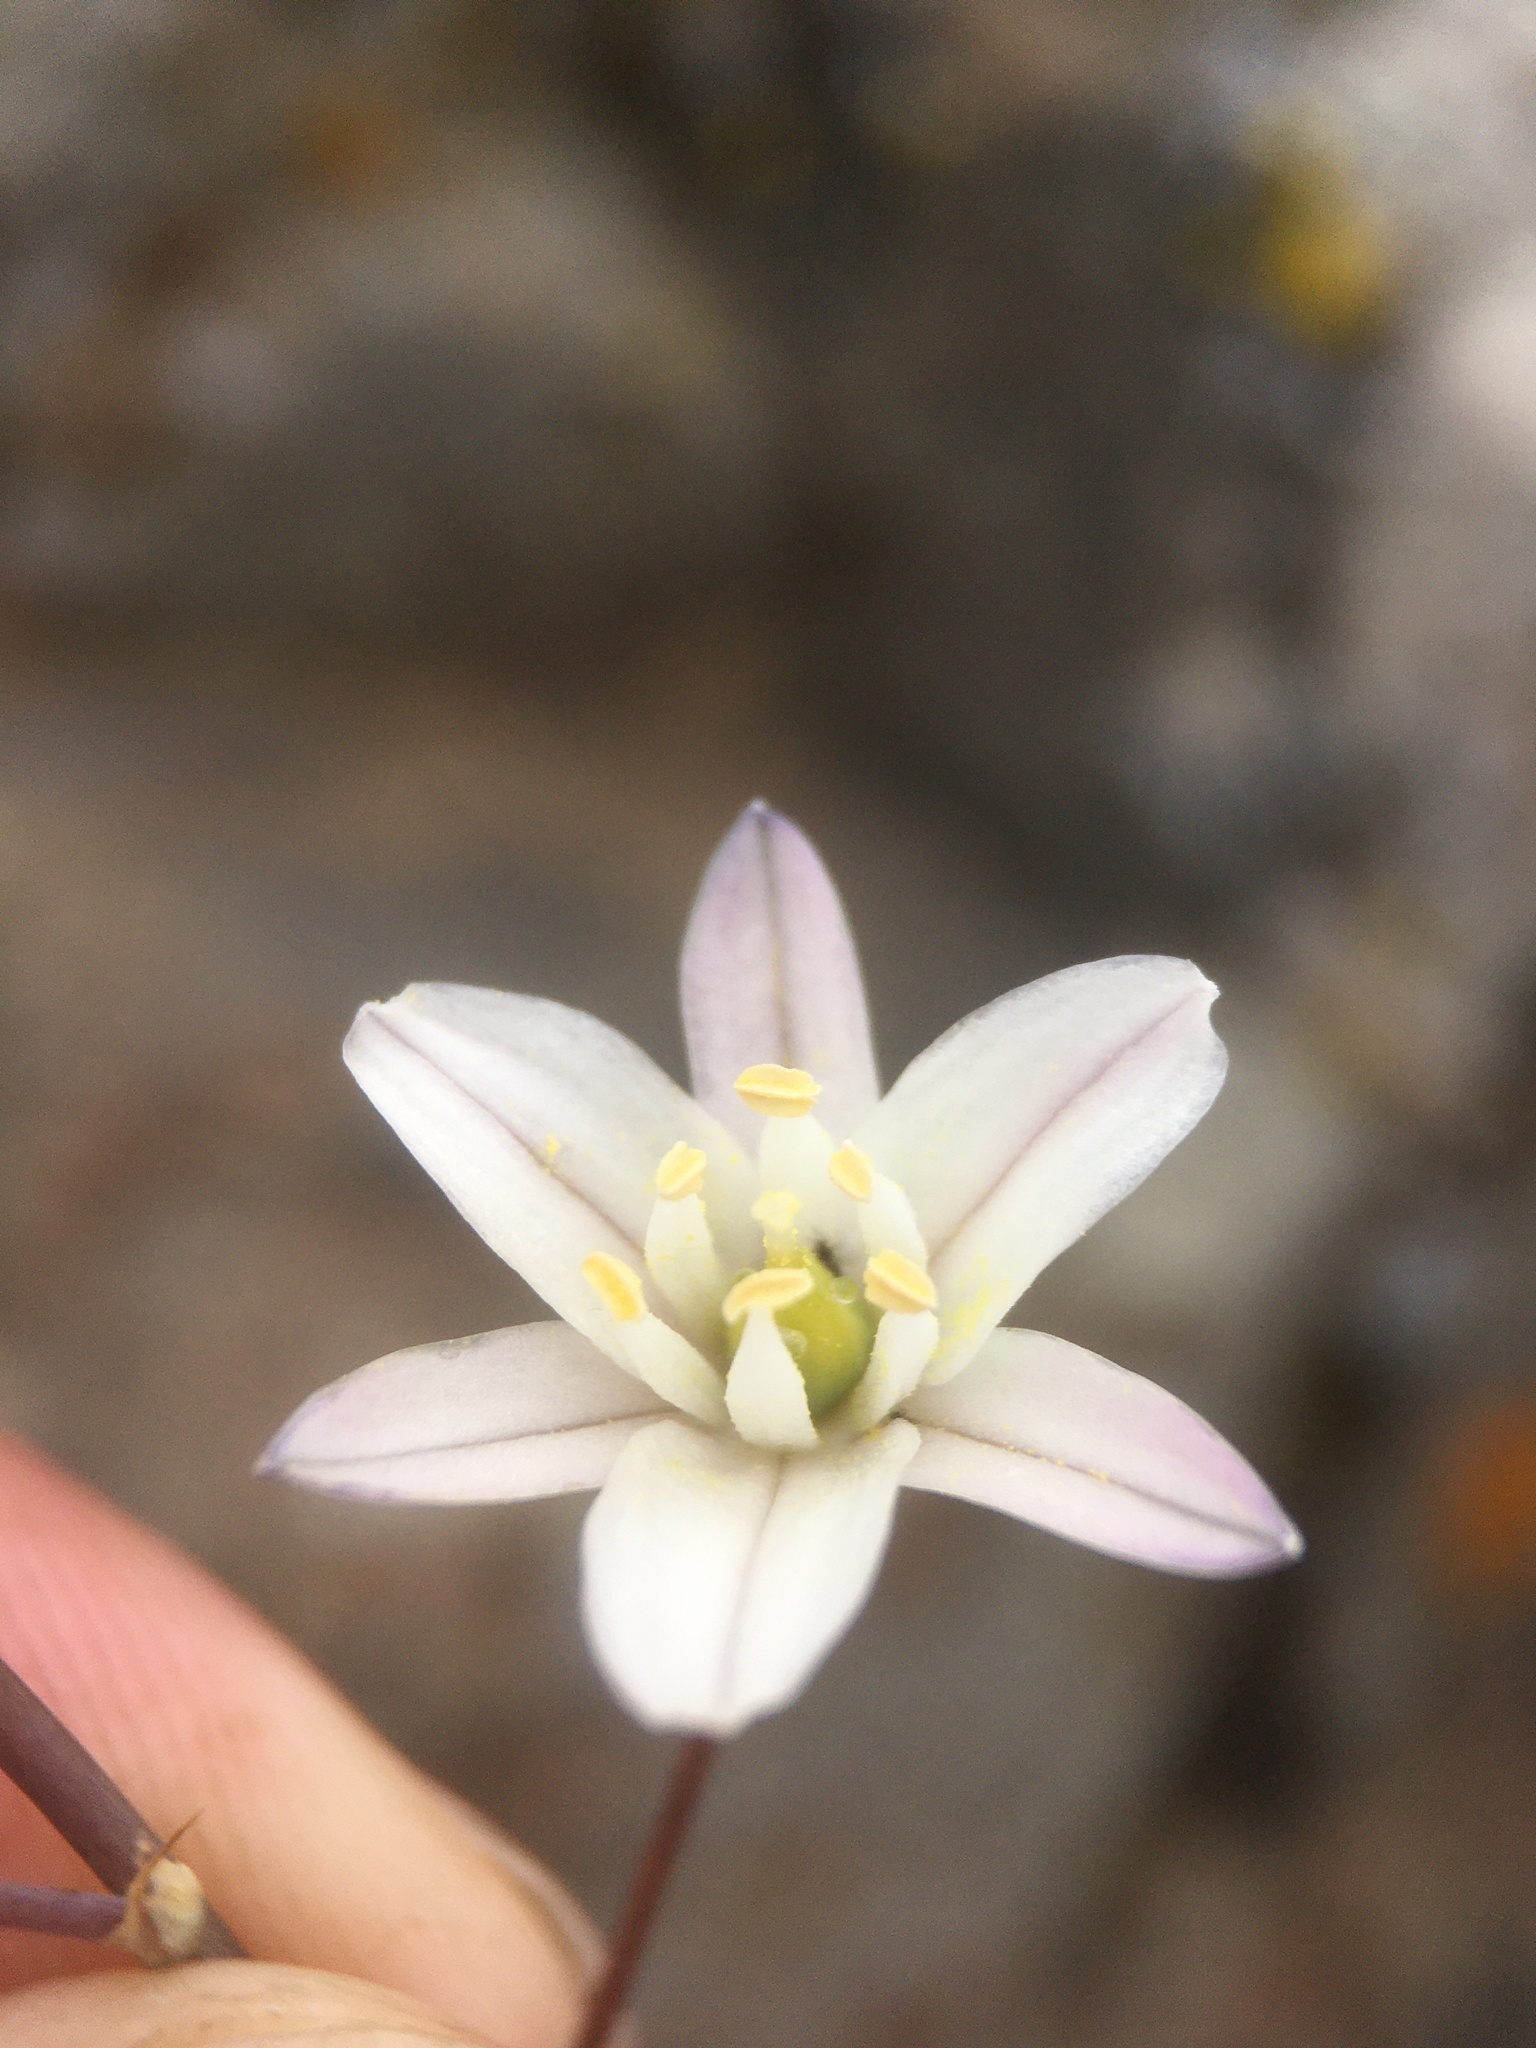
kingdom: Plantae
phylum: Tracheophyta
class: Liliopsida
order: Asparagales
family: Asparagaceae
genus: Oziroe
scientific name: Oziroe biflora
